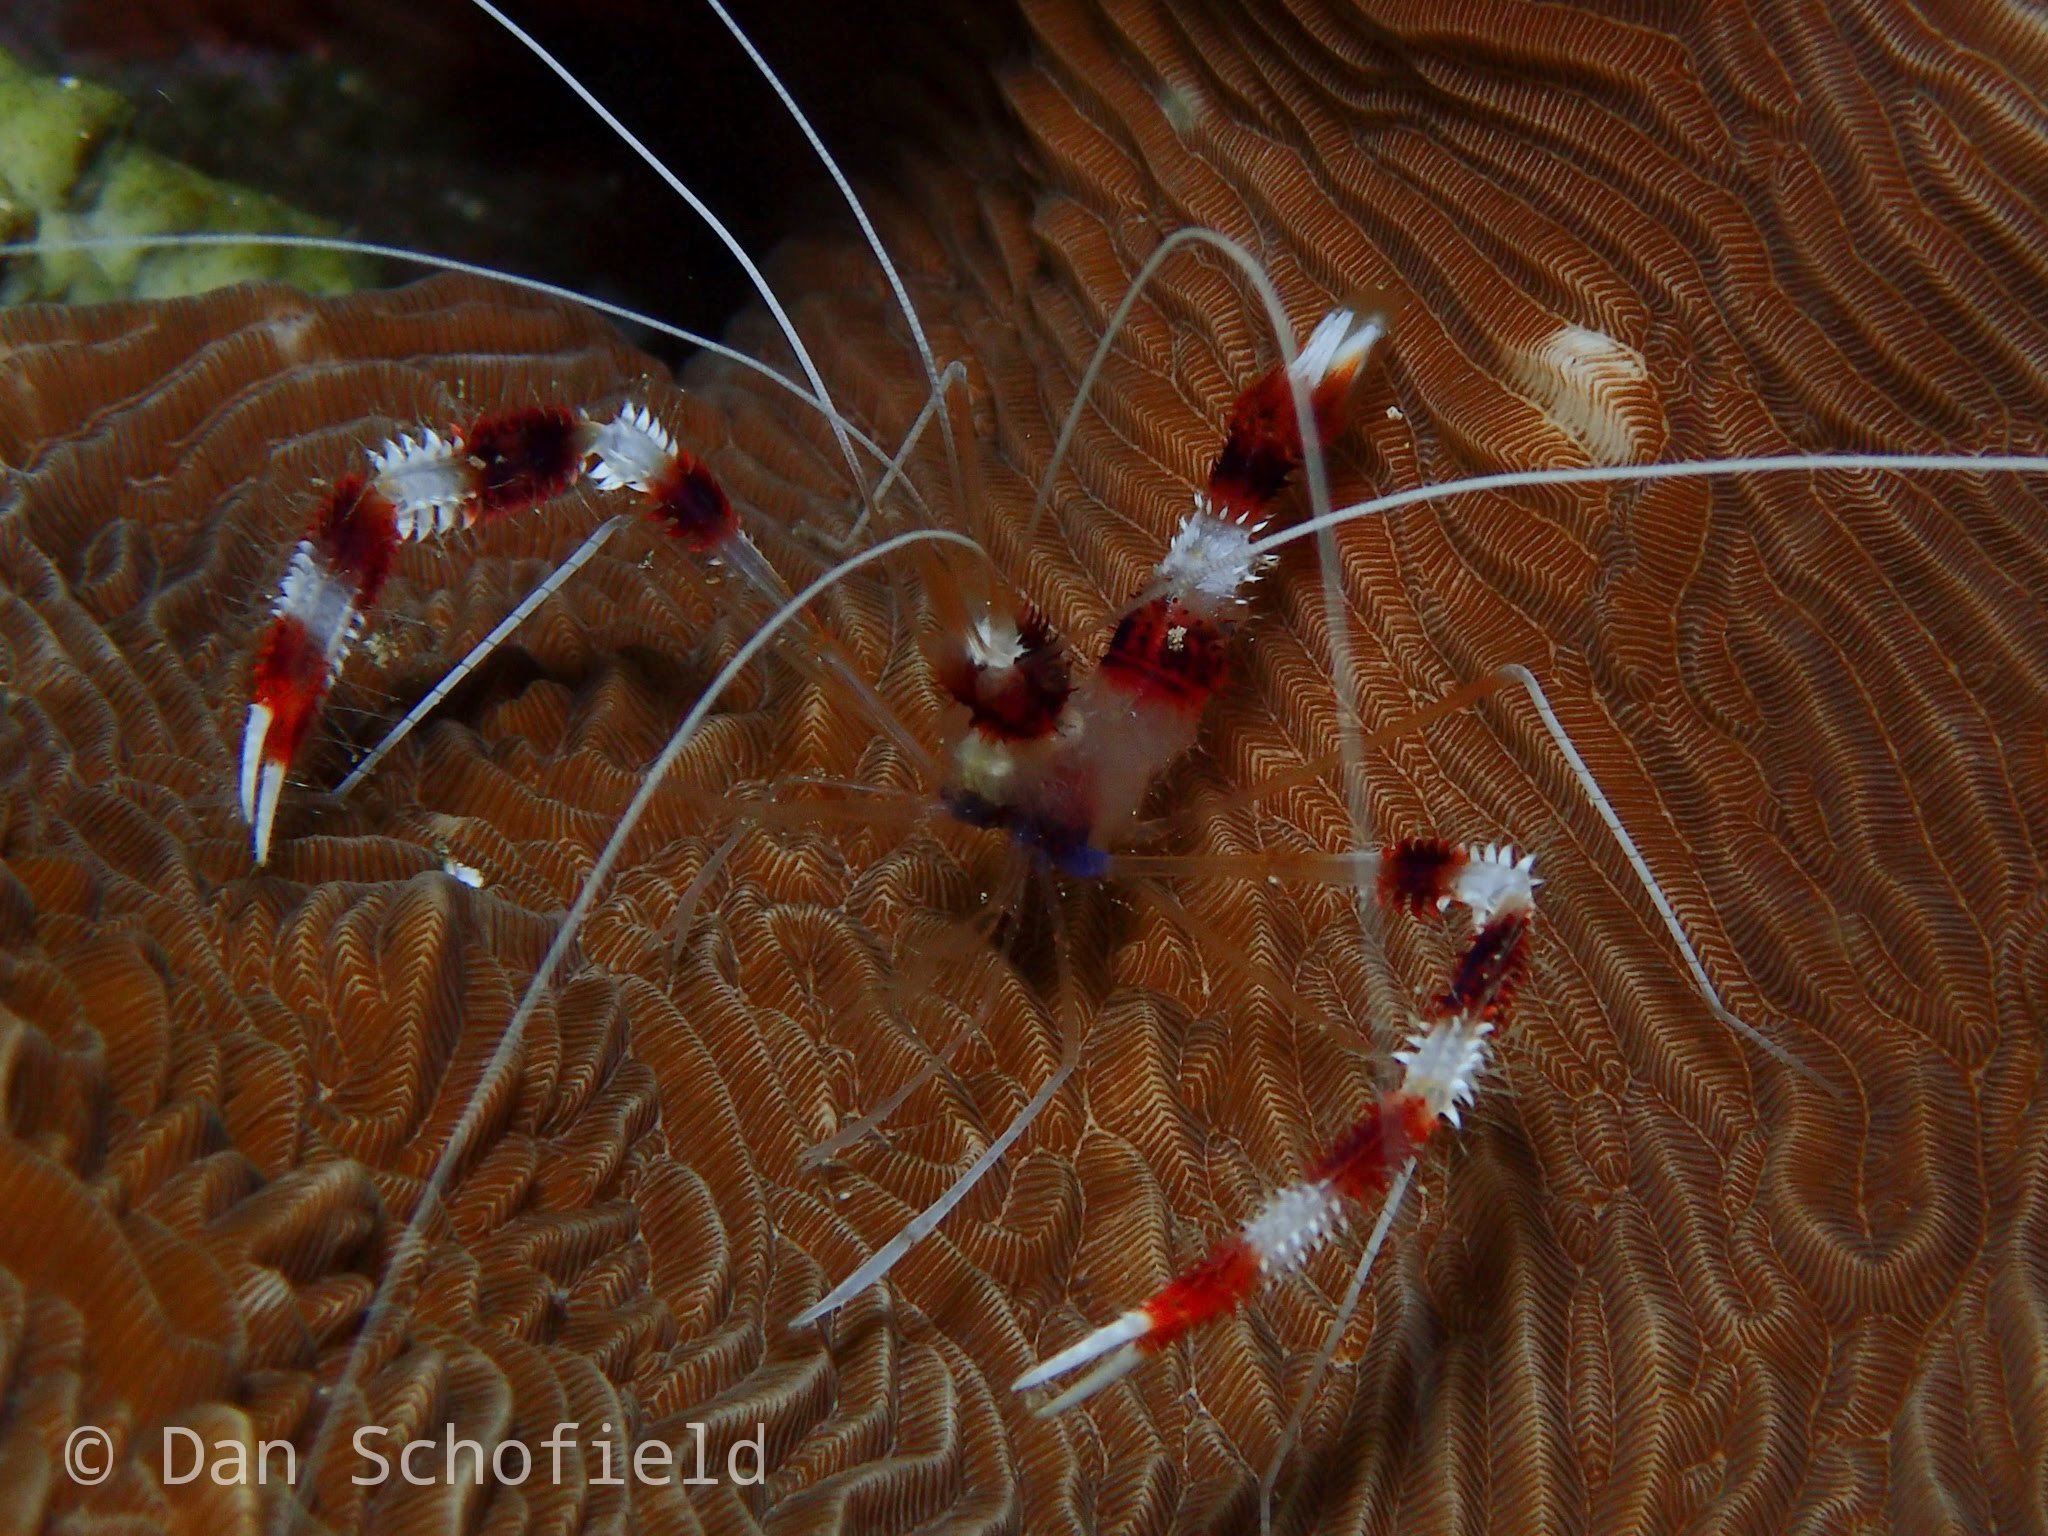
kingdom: Animalia
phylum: Arthropoda
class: Malacostraca
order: Decapoda
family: Stenopodidae
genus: Stenopus
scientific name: Stenopus hispidus
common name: Banded coral shrimp
